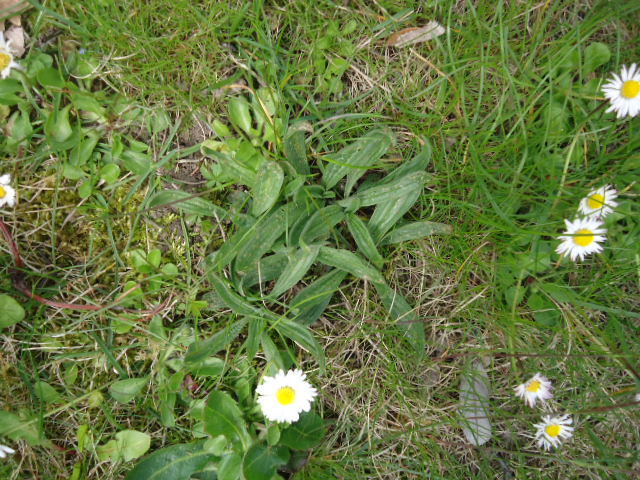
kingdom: Plantae
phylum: Tracheophyta
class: Magnoliopsida
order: Lamiales
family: Plantaginaceae
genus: Plantago
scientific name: Plantago lanceolata
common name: Ribwort plantain
